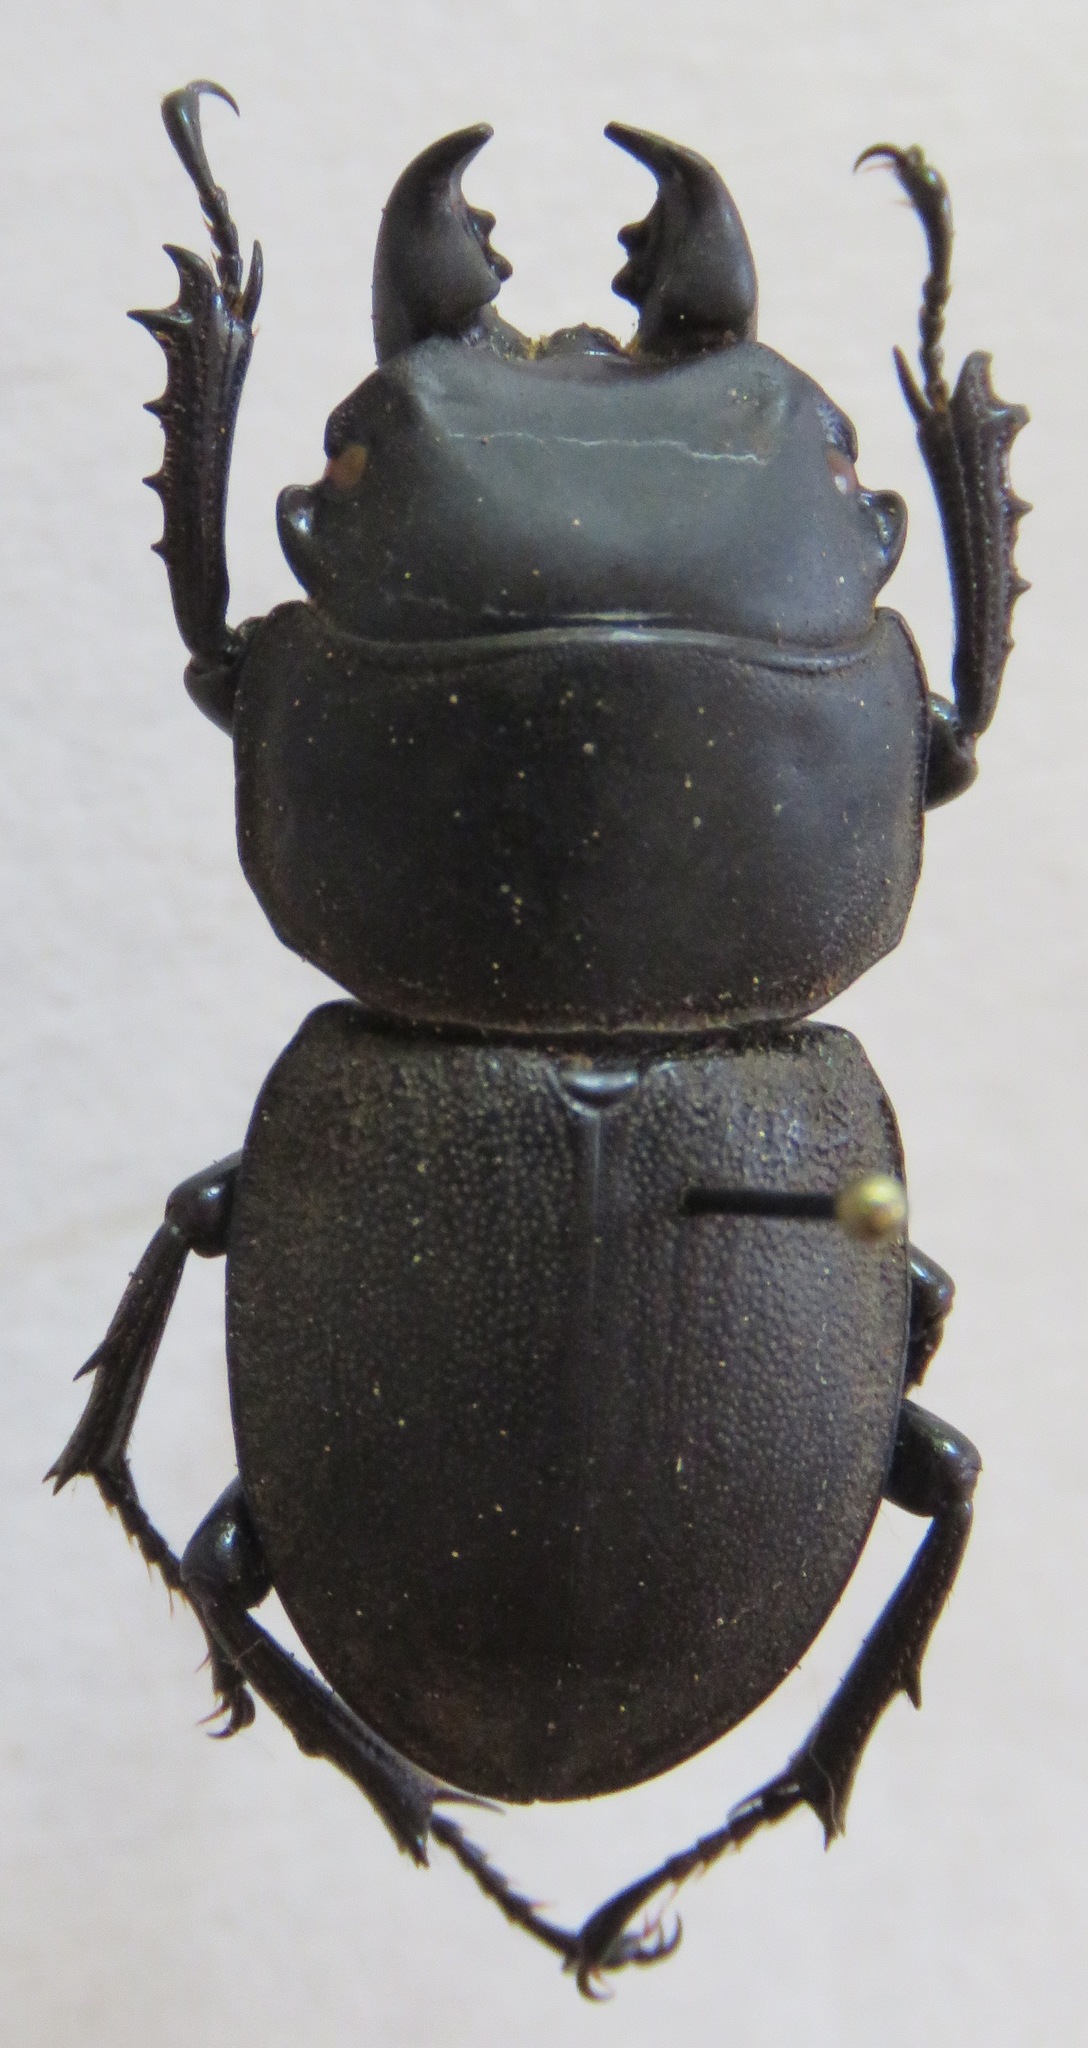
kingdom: Animalia
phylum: Arthropoda
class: Insecta
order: Coleoptera
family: Lucanidae
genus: Apterodorcus
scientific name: Apterodorcus bacchus
